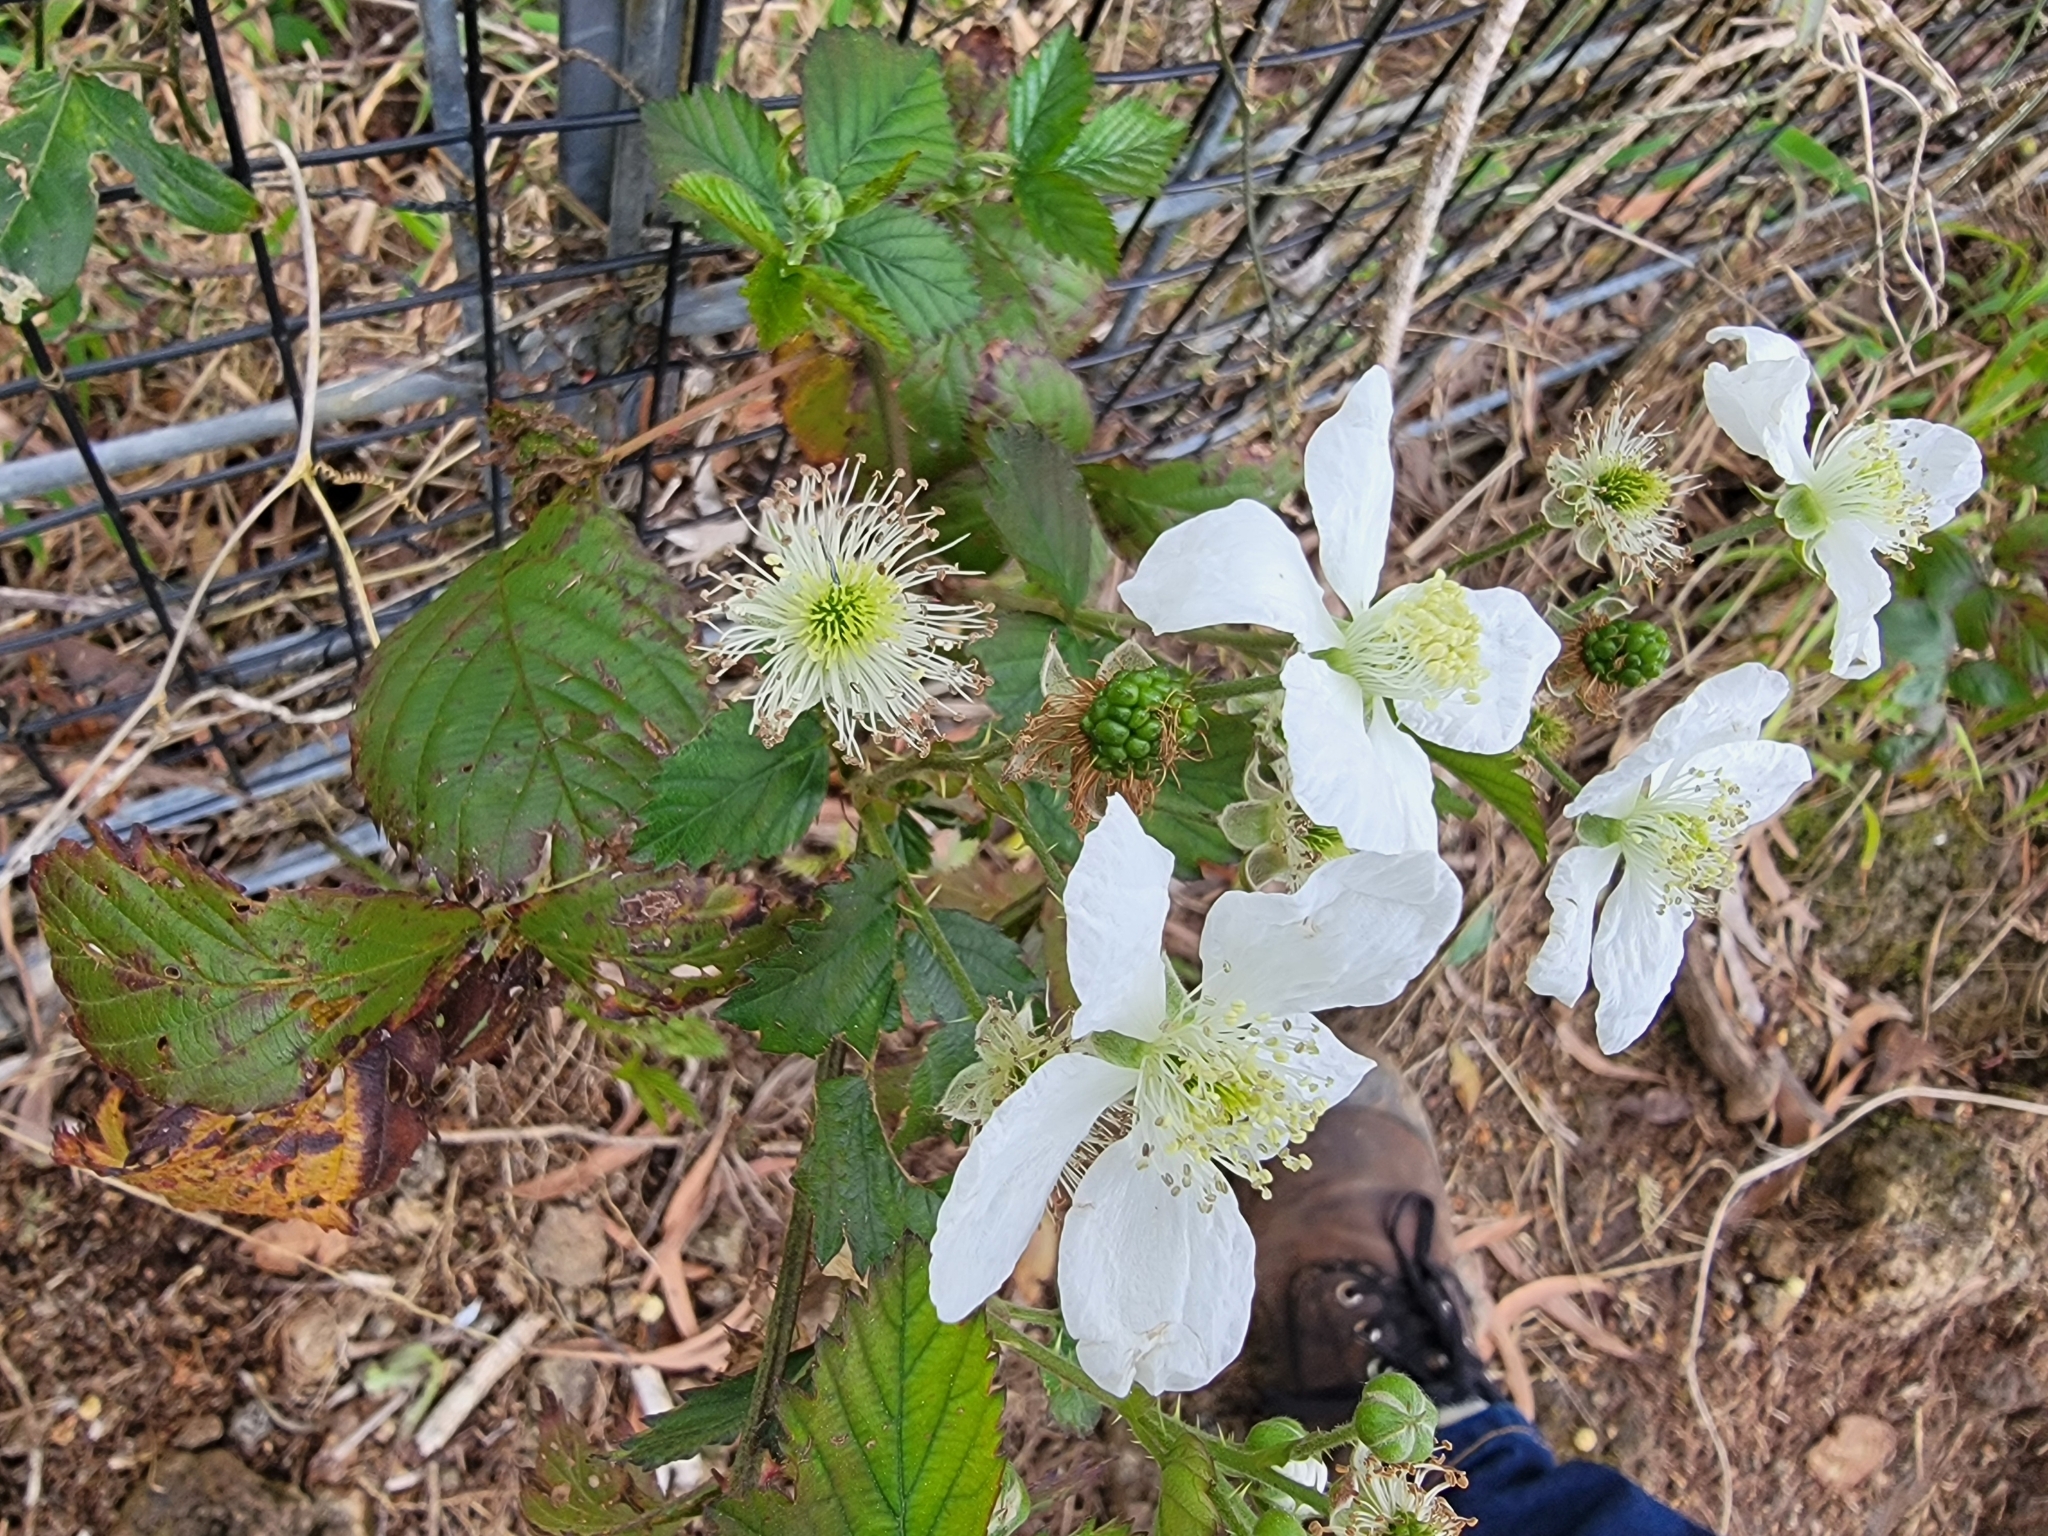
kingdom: Plantae
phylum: Tracheophyta
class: Magnoliopsida
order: Rosales
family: Rosaceae
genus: Rubus
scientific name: Rubus argutus
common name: Sawtooth blackberry
